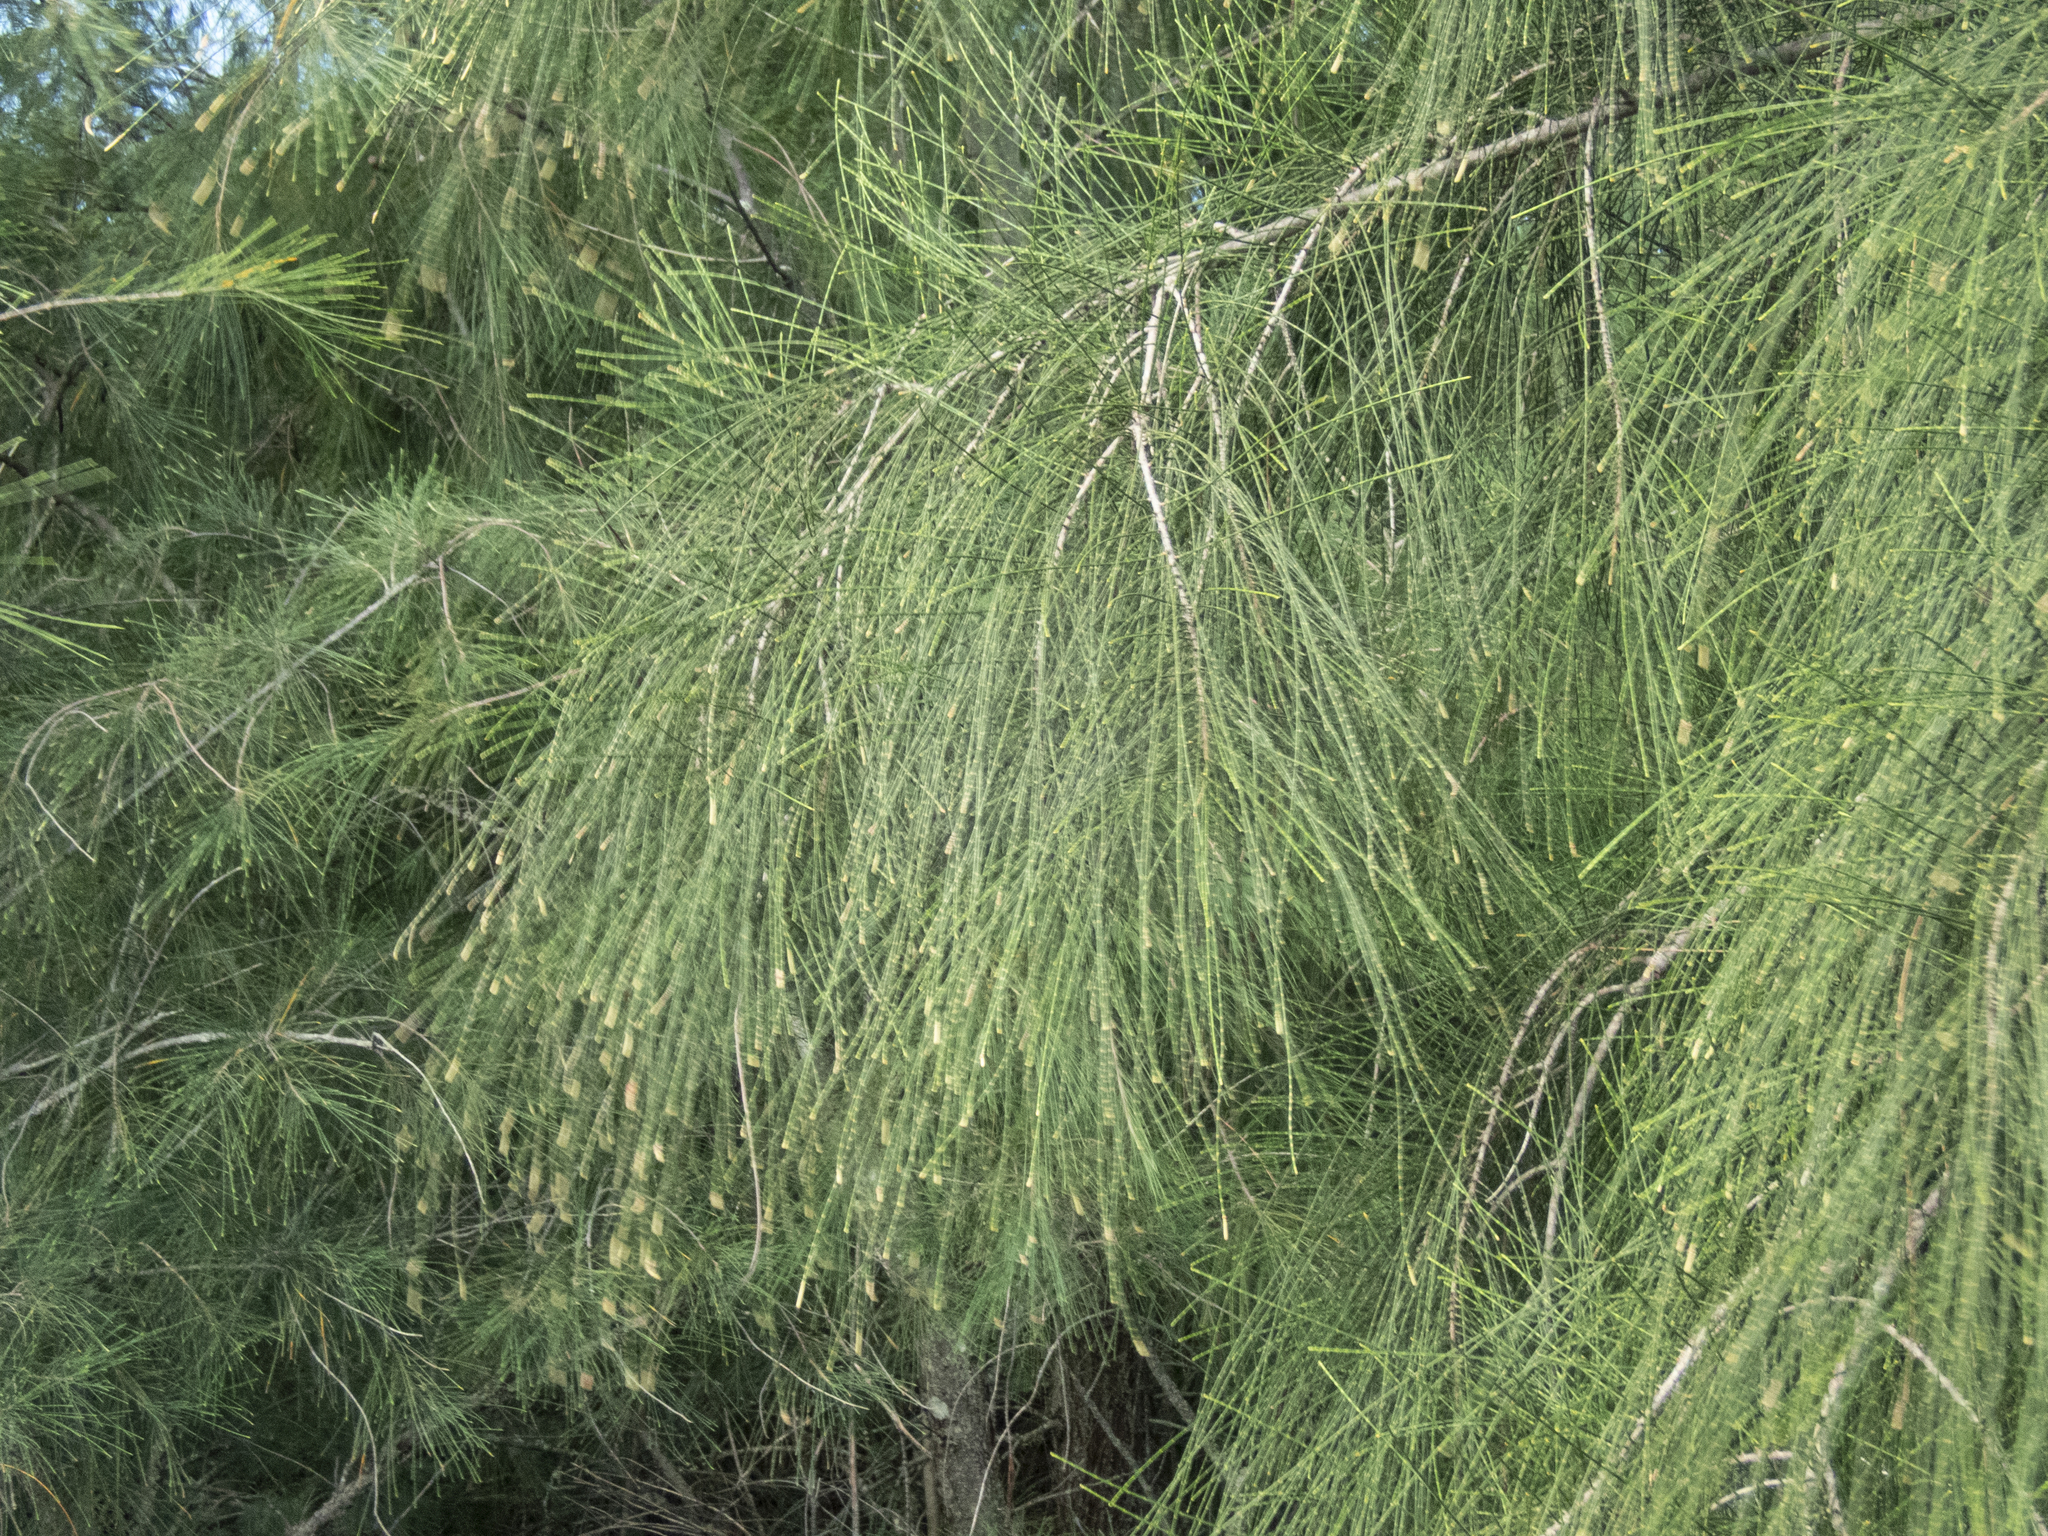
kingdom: Plantae
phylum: Tracheophyta
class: Magnoliopsida
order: Fagales
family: Casuarinaceae
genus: Casuarina
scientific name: Casuarina equisetifolia
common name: Beach sheoak
